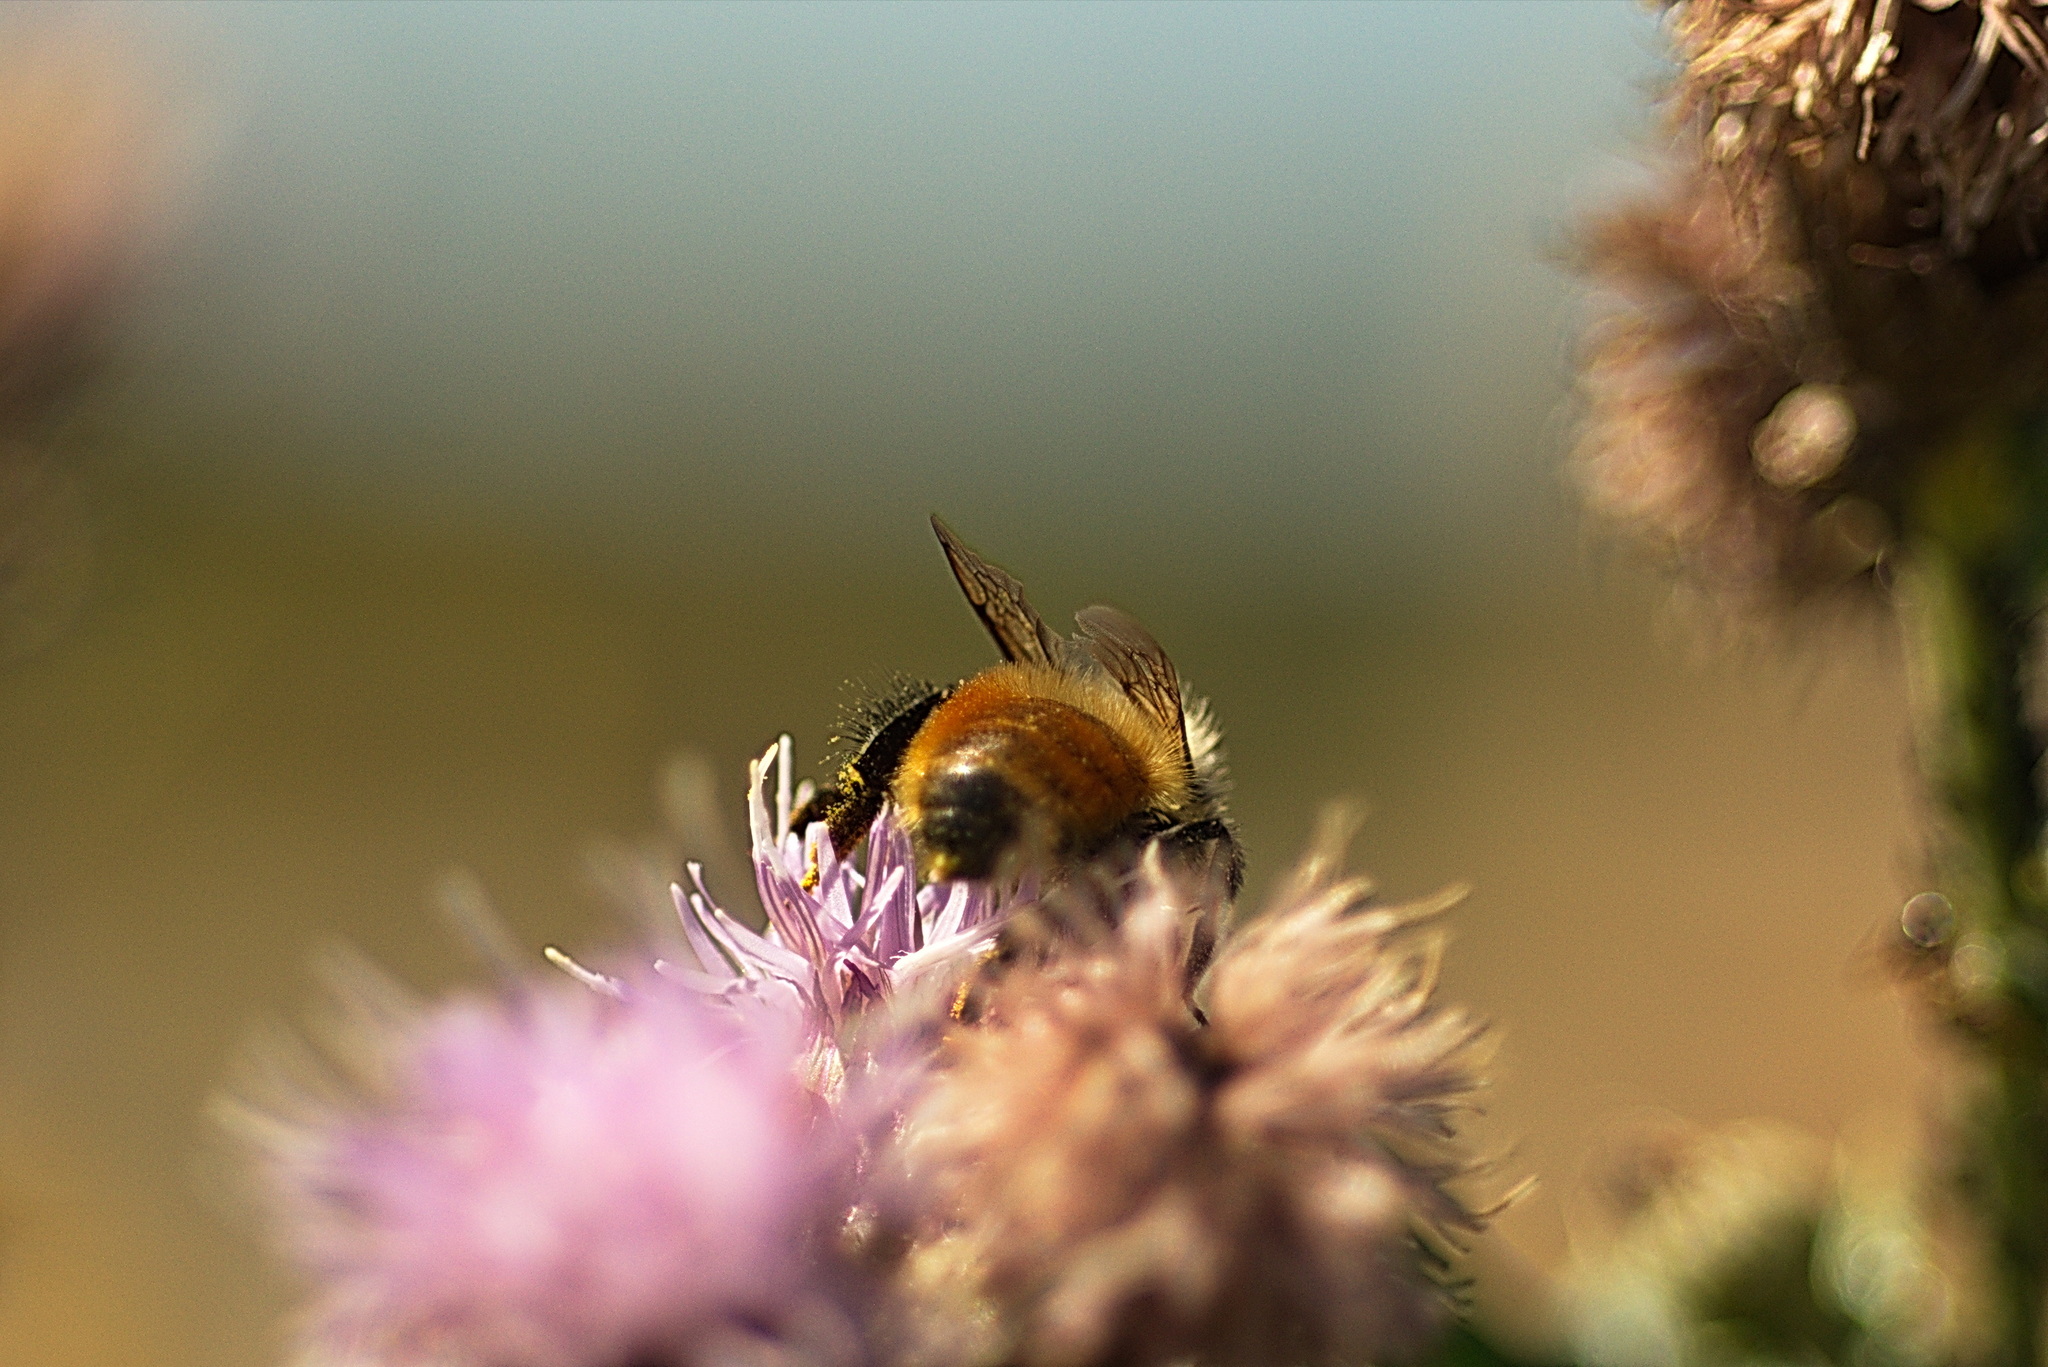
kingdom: Animalia
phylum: Arthropoda
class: Insecta
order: Hymenoptera
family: Apidae
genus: Bombus
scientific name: Bombus rufocinctus
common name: Red-belted bumble bee
